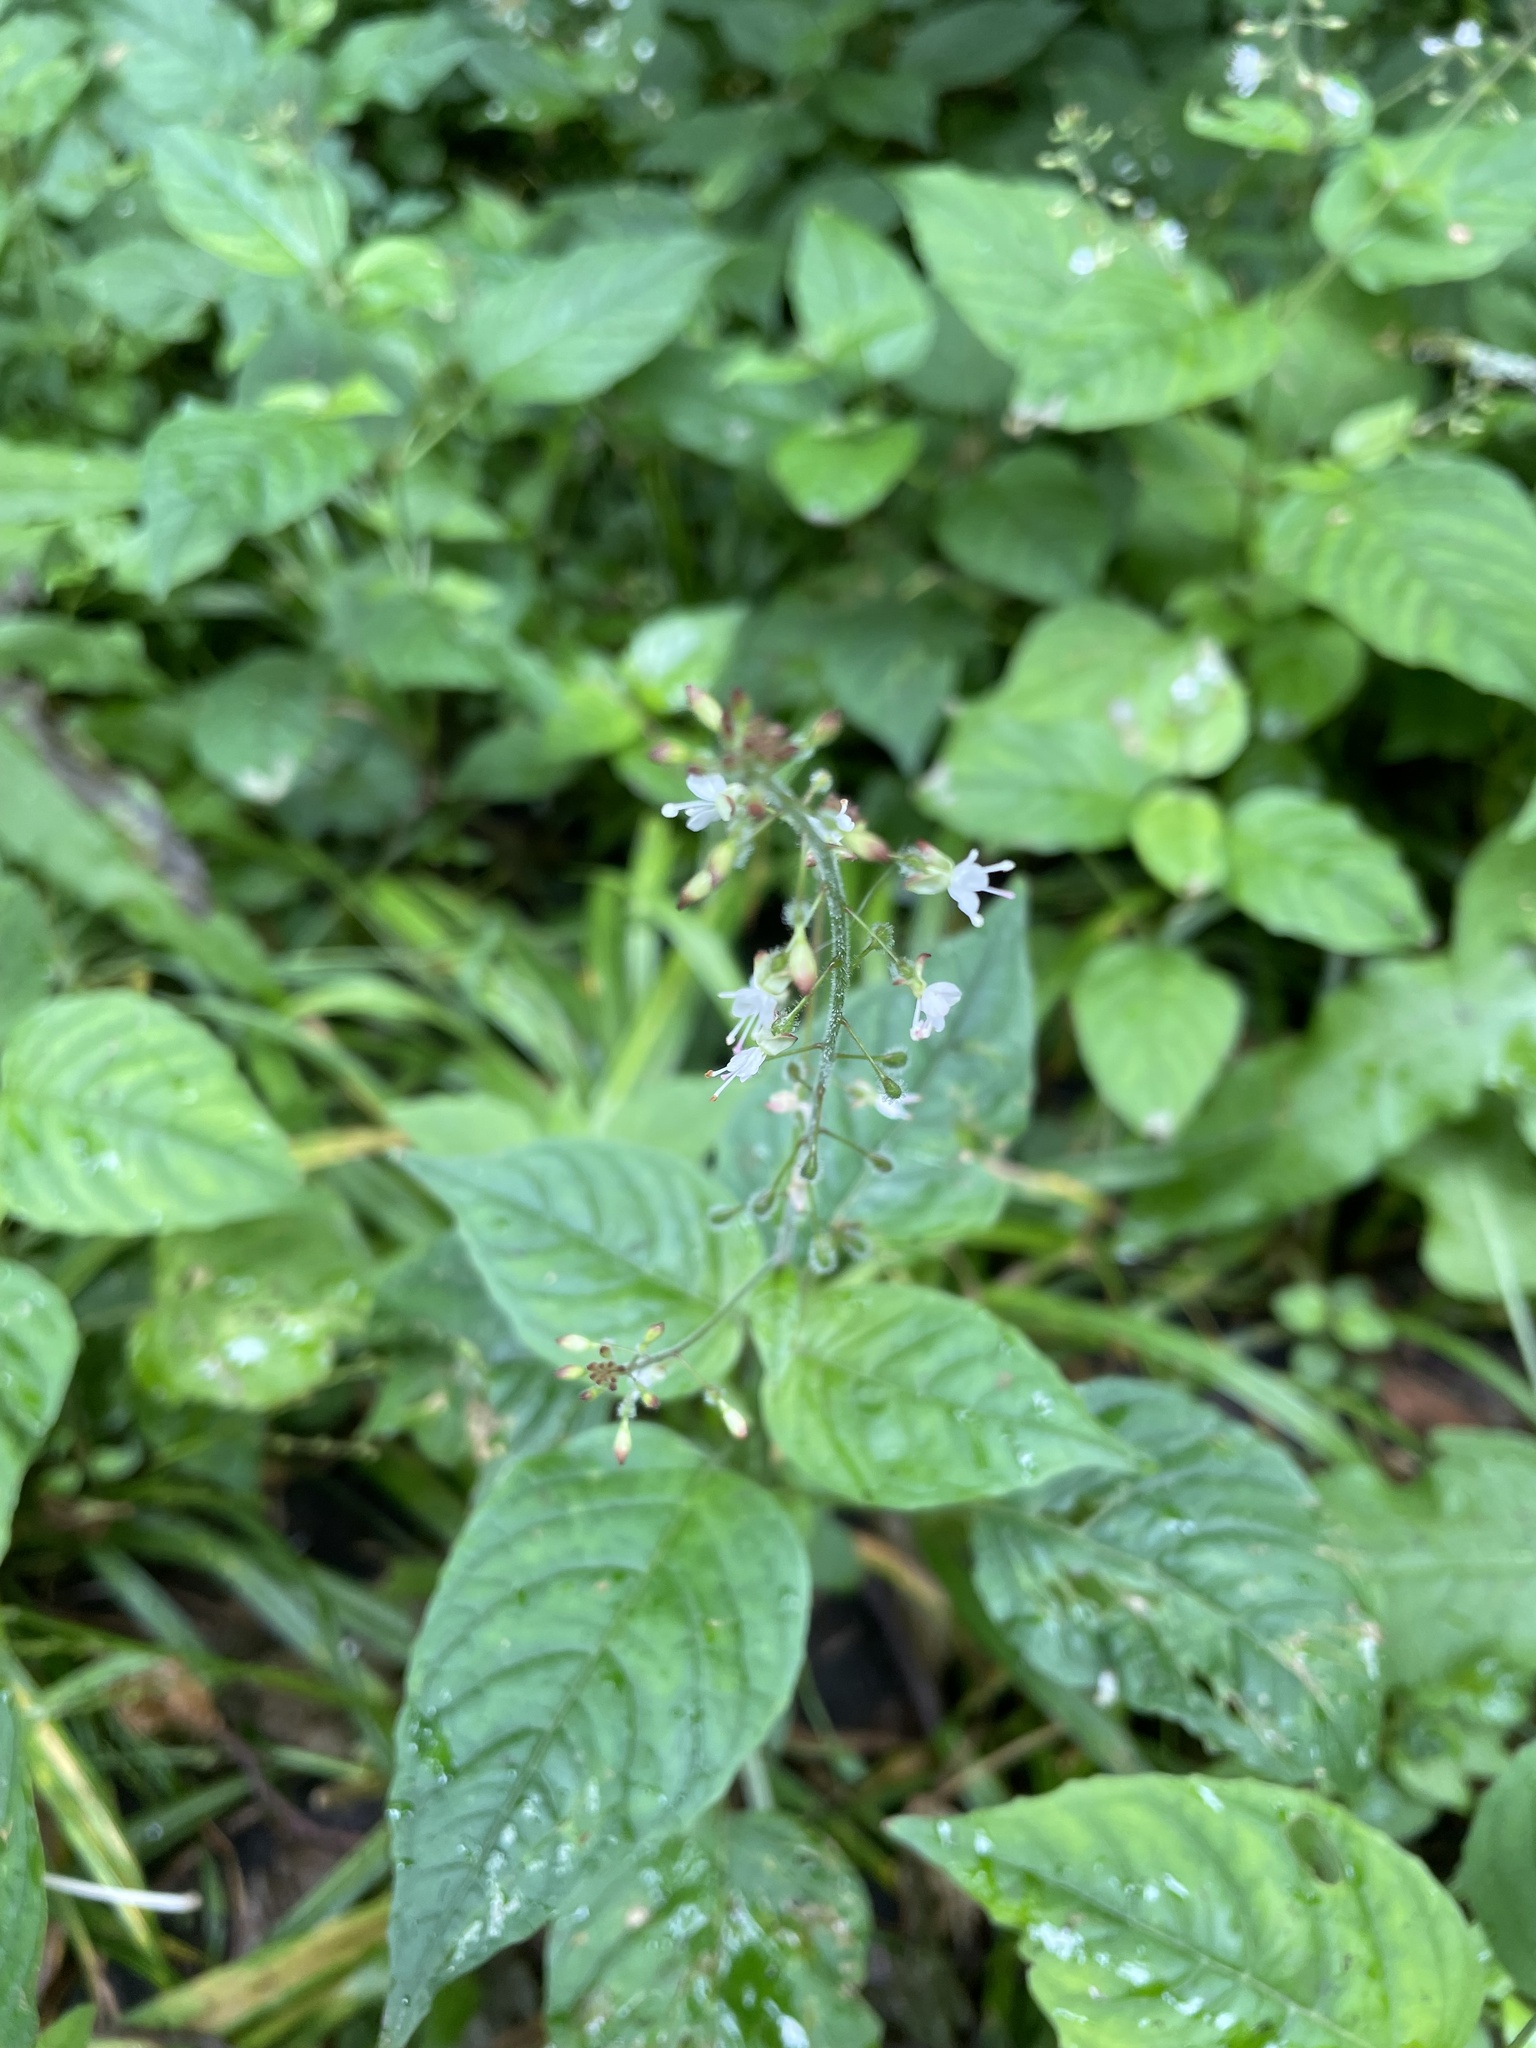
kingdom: Plantae
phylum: Tracheophyta
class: Magnoliopsida
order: Myrtales
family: Onagraceae
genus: Circaea
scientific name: Circaea lutetiana
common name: Enchanter's-nightshade
